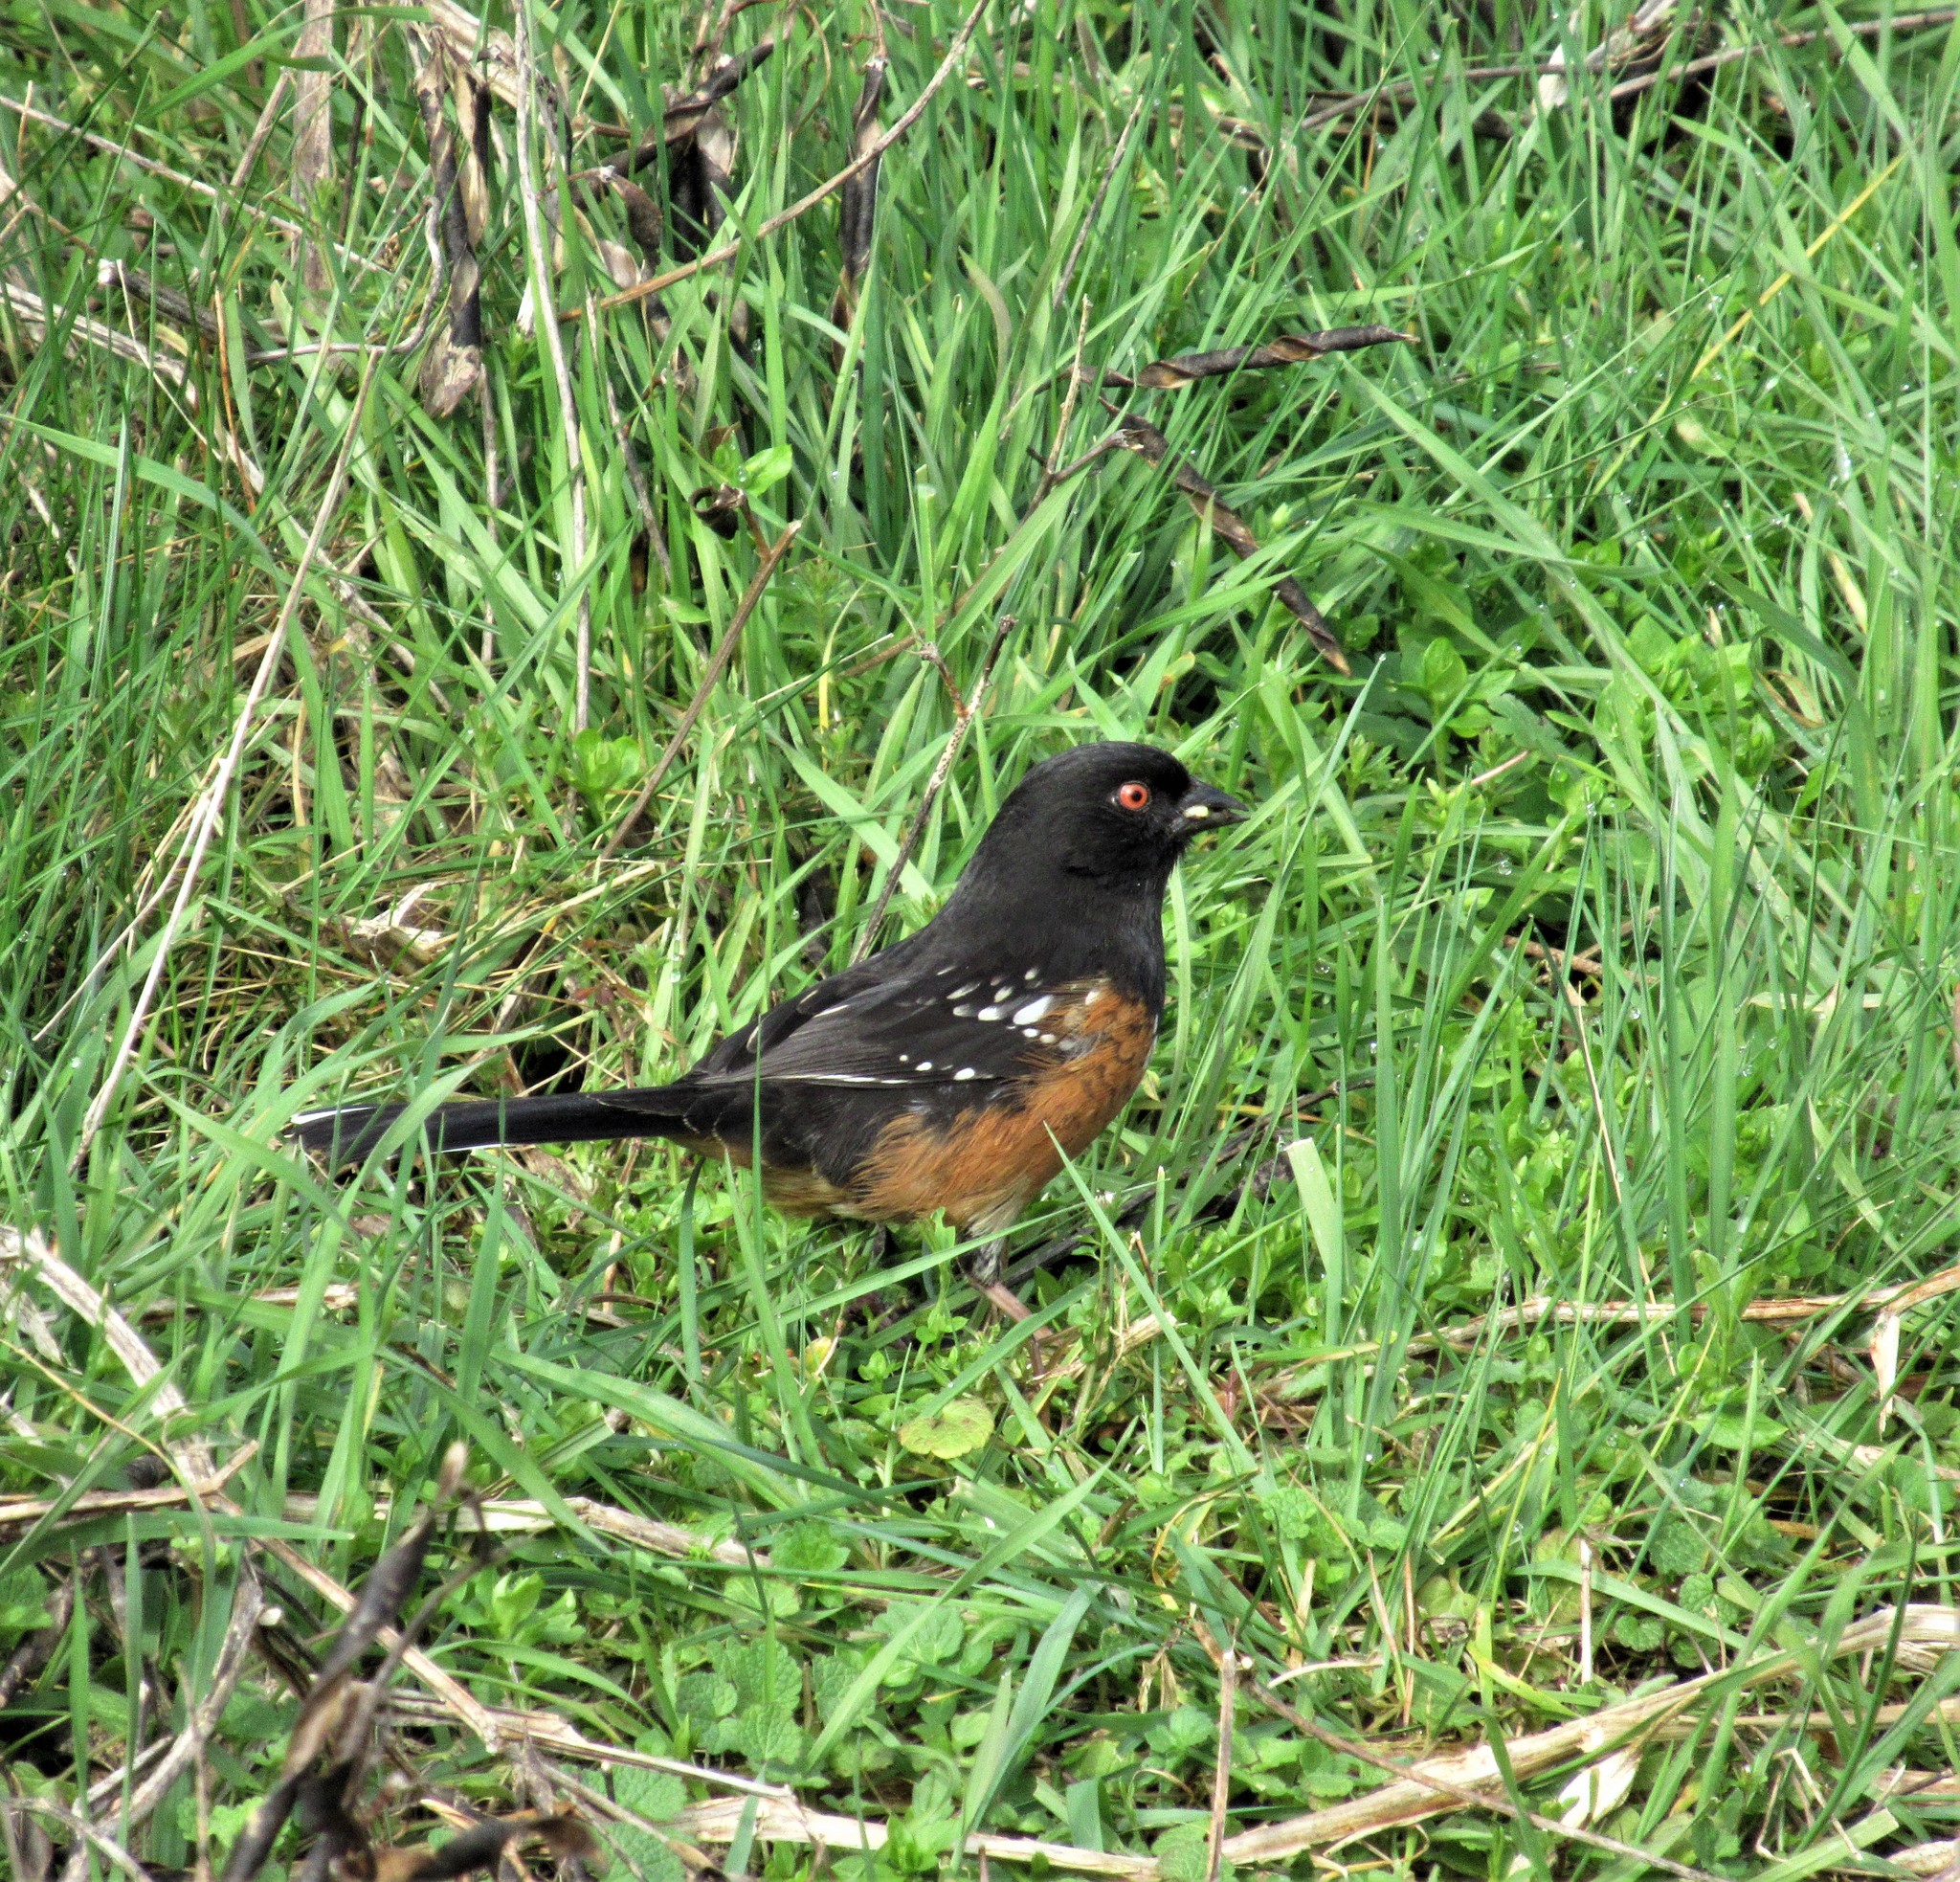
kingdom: Animalia
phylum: Chordata
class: Aves
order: Passeriformes
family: Passerellidae
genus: Pipilo
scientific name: Pipilo maculatus
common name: Spotted towhee
